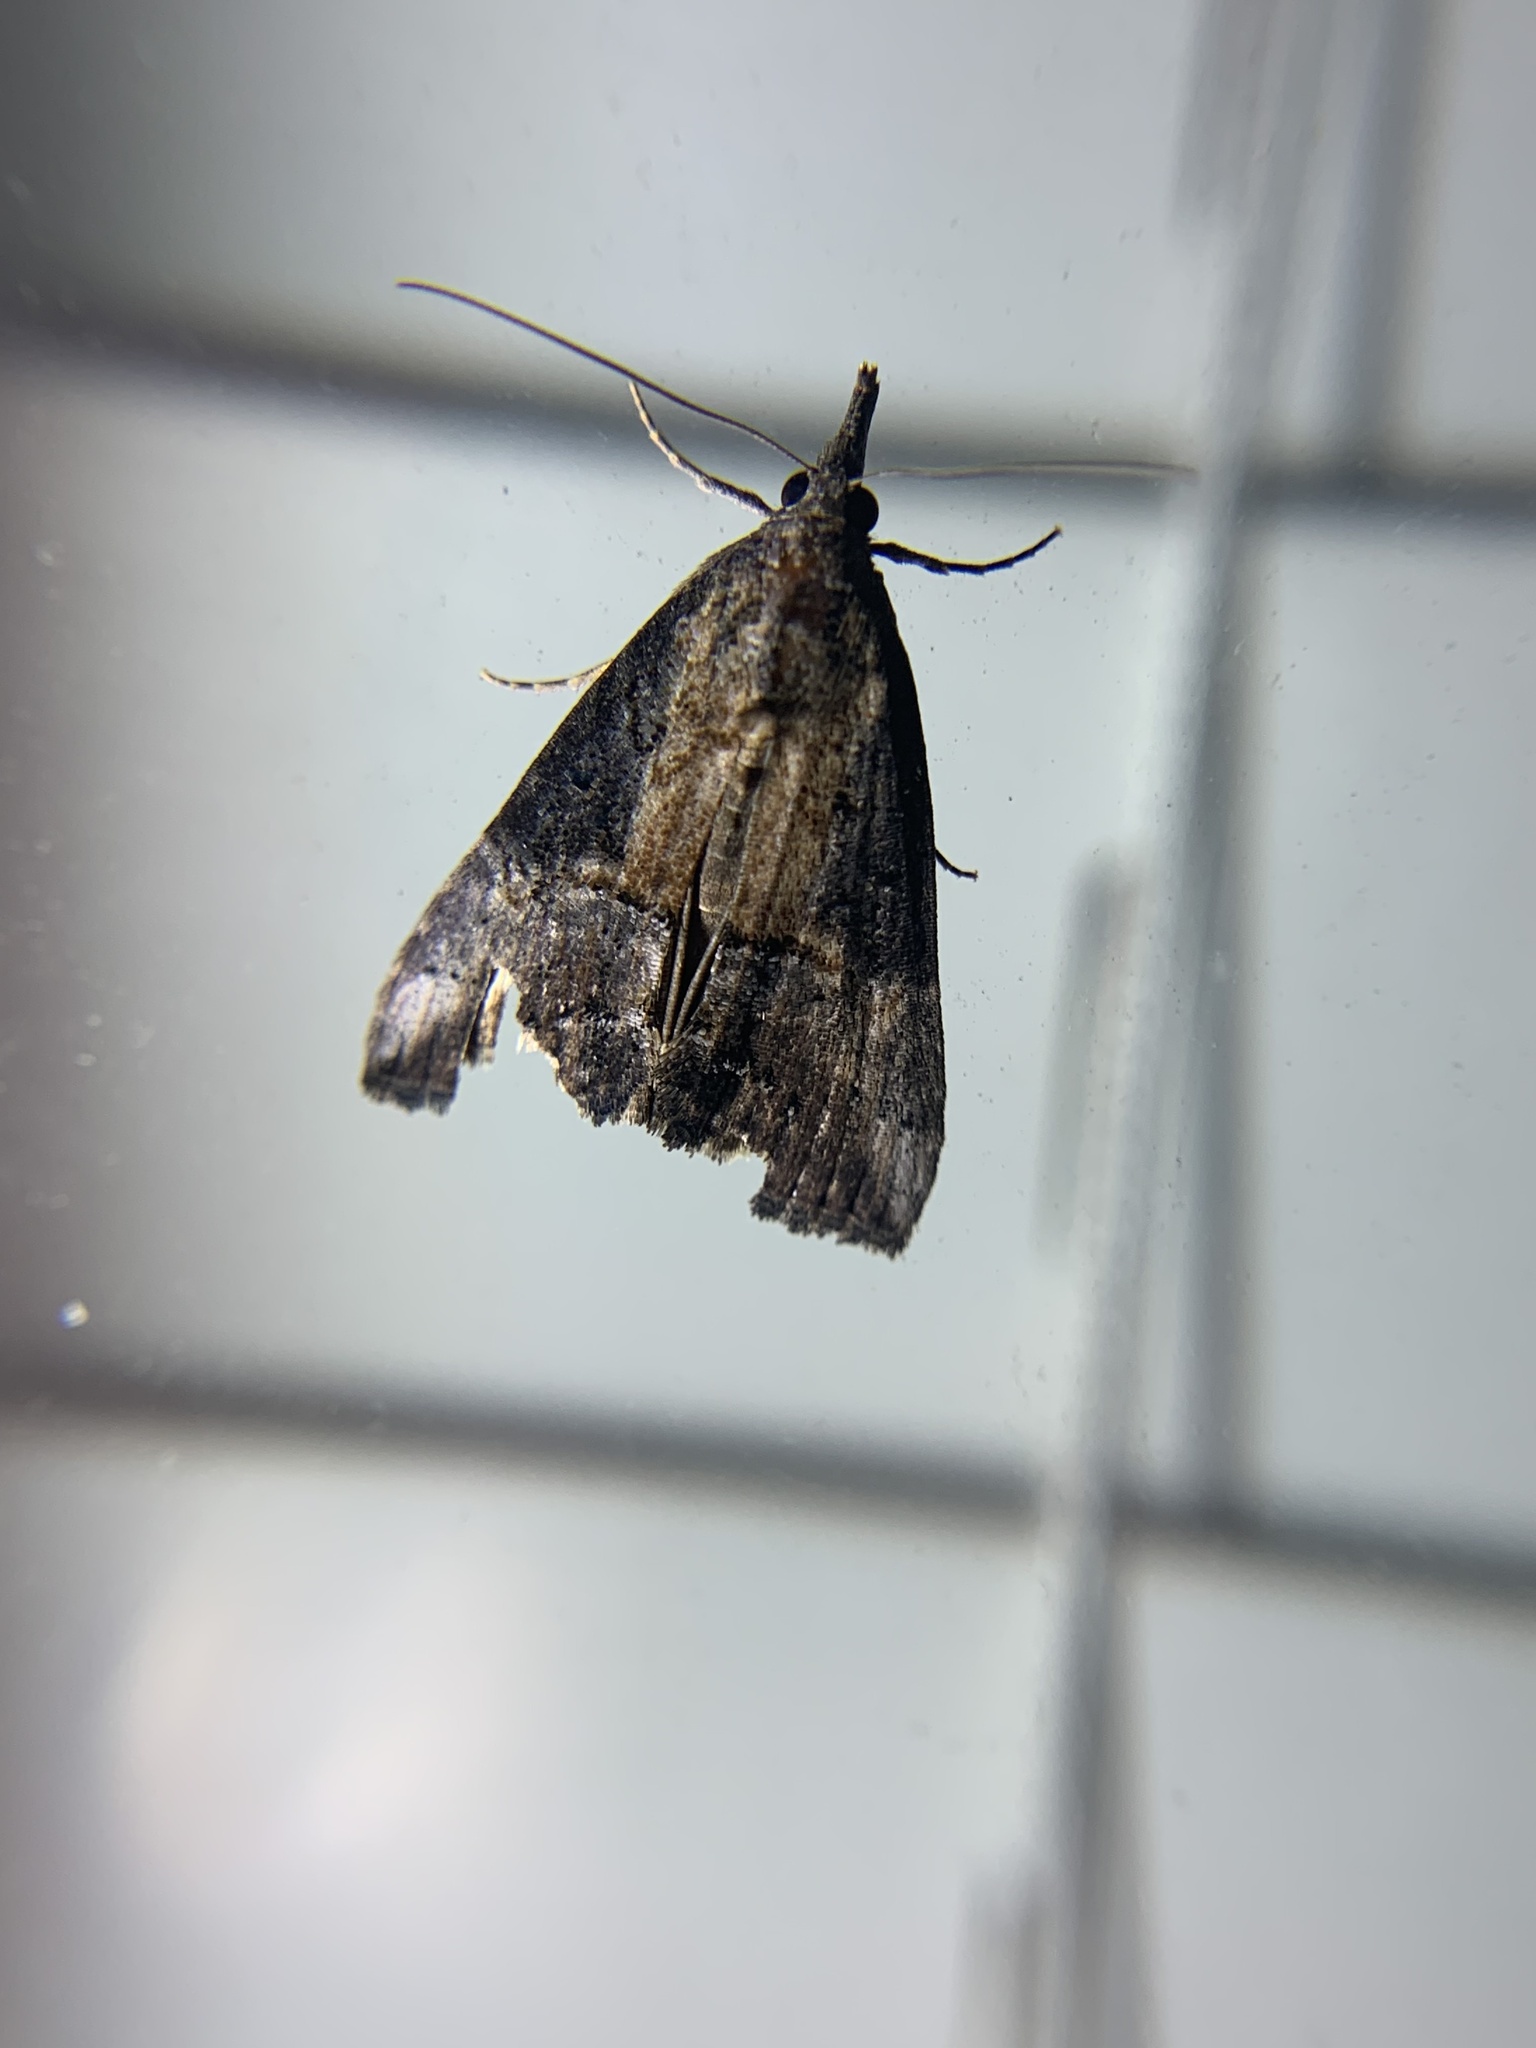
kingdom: Animalia
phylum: Arthropoda
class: Insecta
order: Lepidoptera
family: Erebidae
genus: Hypena
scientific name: Hypena scabra
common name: Green cloverworm
